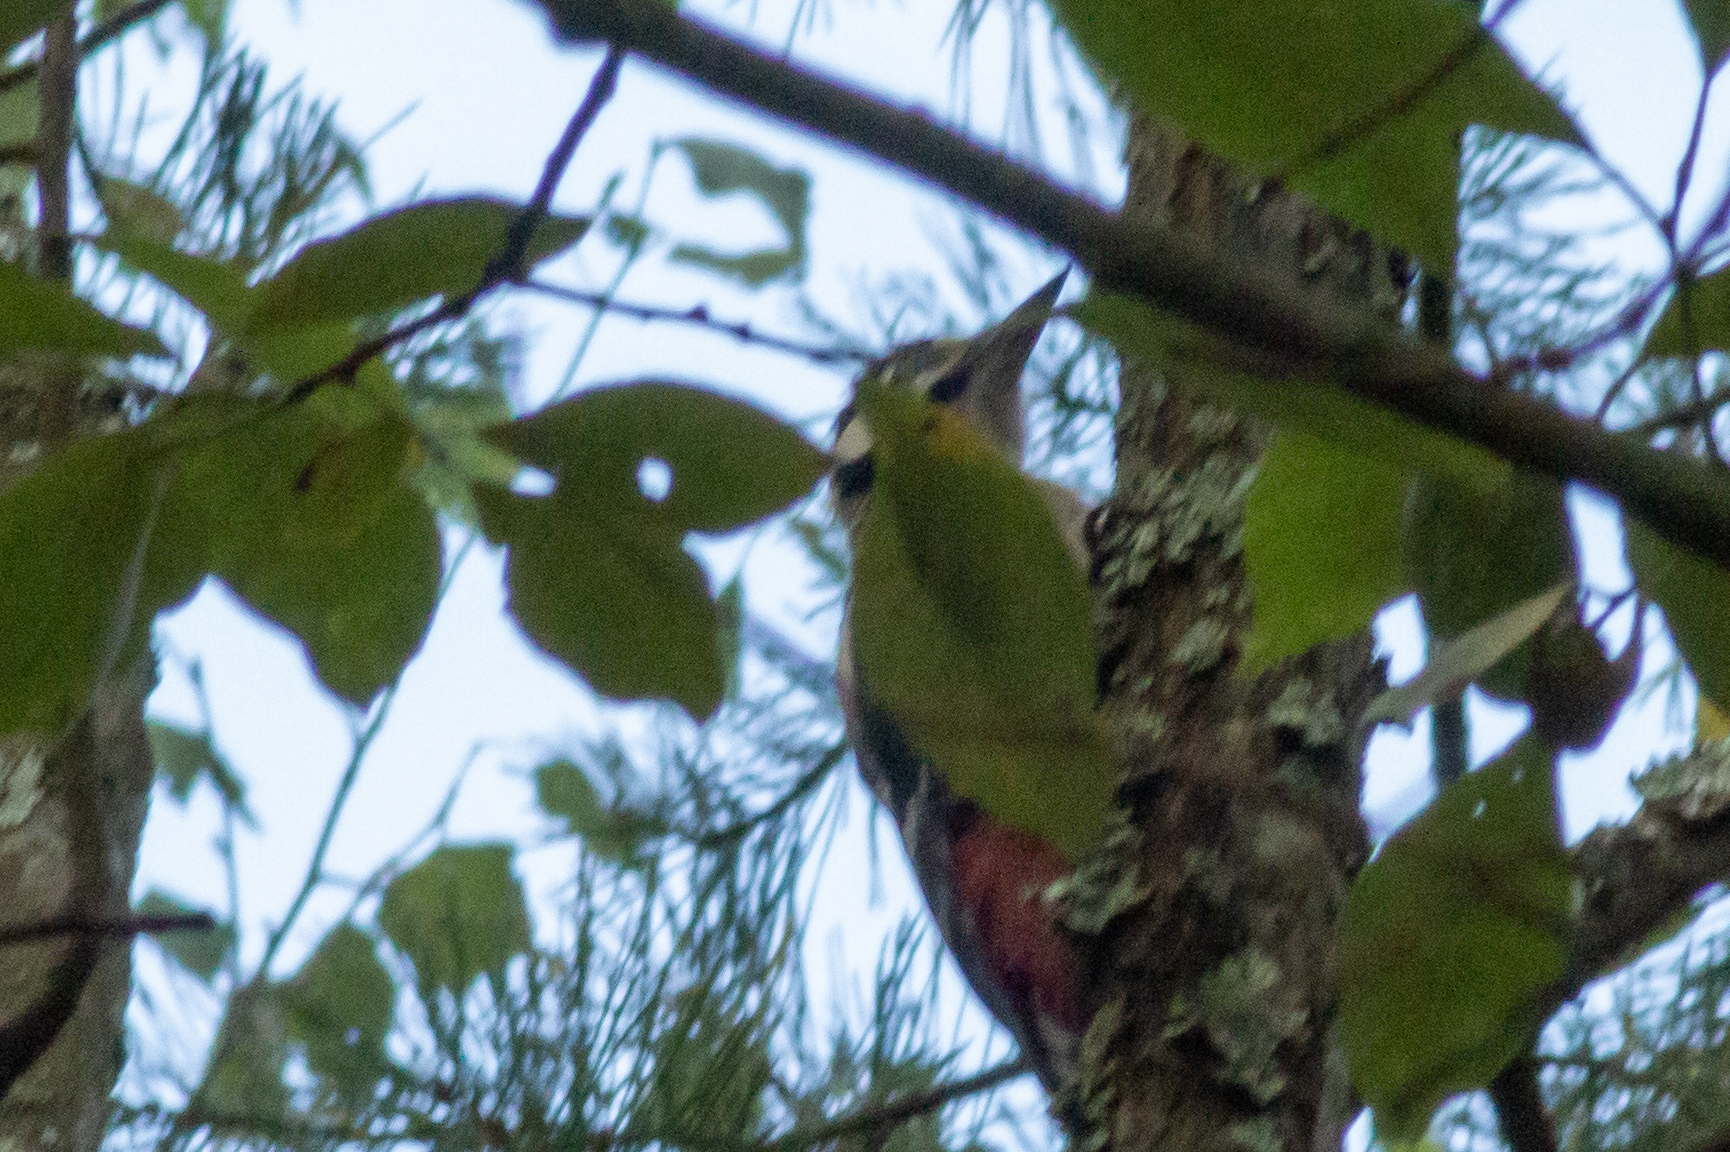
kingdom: Animalia
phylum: Chordata
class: Aves
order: Piciformes
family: Picidae
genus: Dendrocopos
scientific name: Dendrocopos major
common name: Great spotted woodpecker
